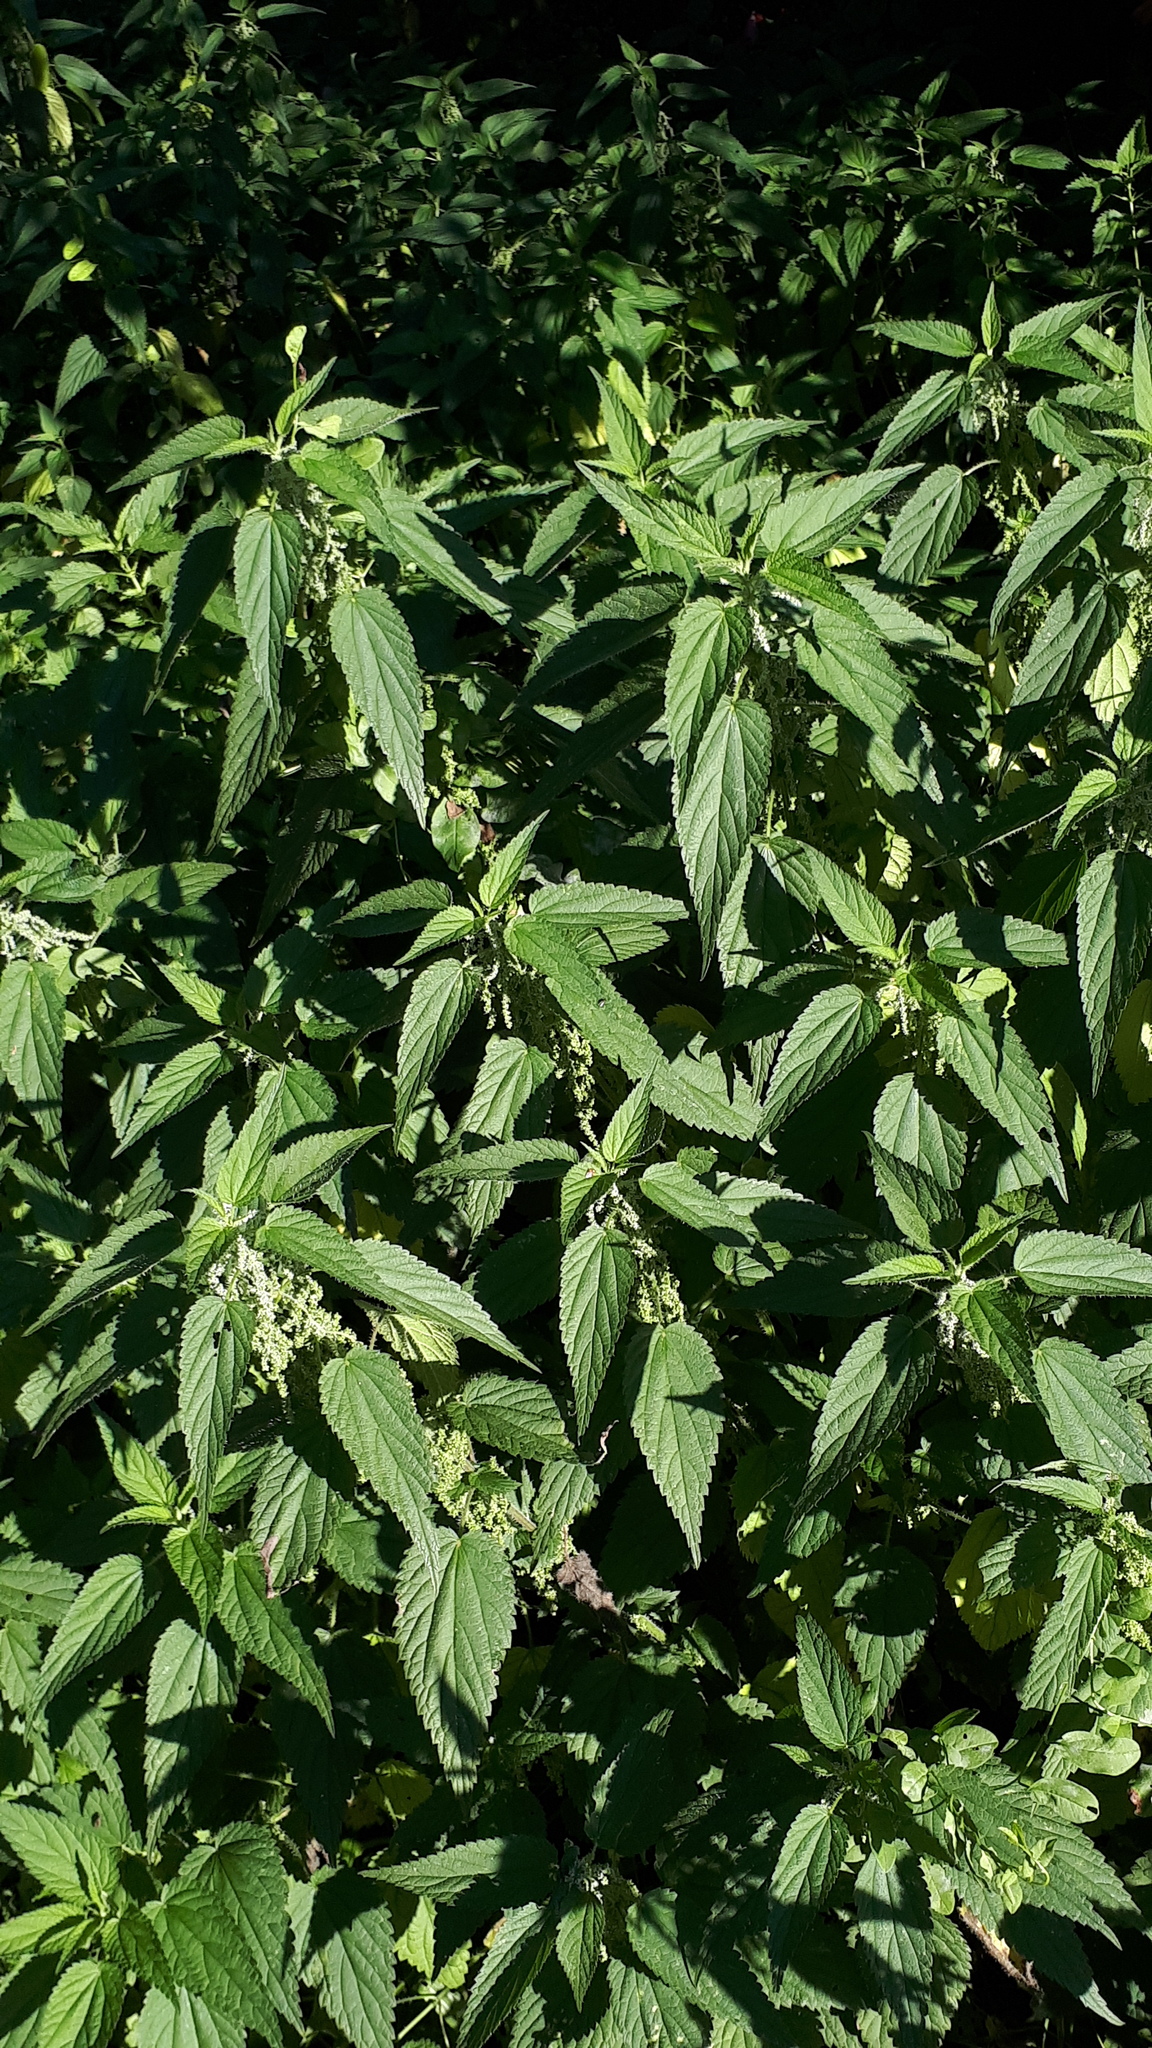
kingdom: Plantae
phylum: Tracheophyta
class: Magnoliopsida
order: Rosales
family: Urticaceae
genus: Urtica
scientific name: Urtica dioica
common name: Common nettle
